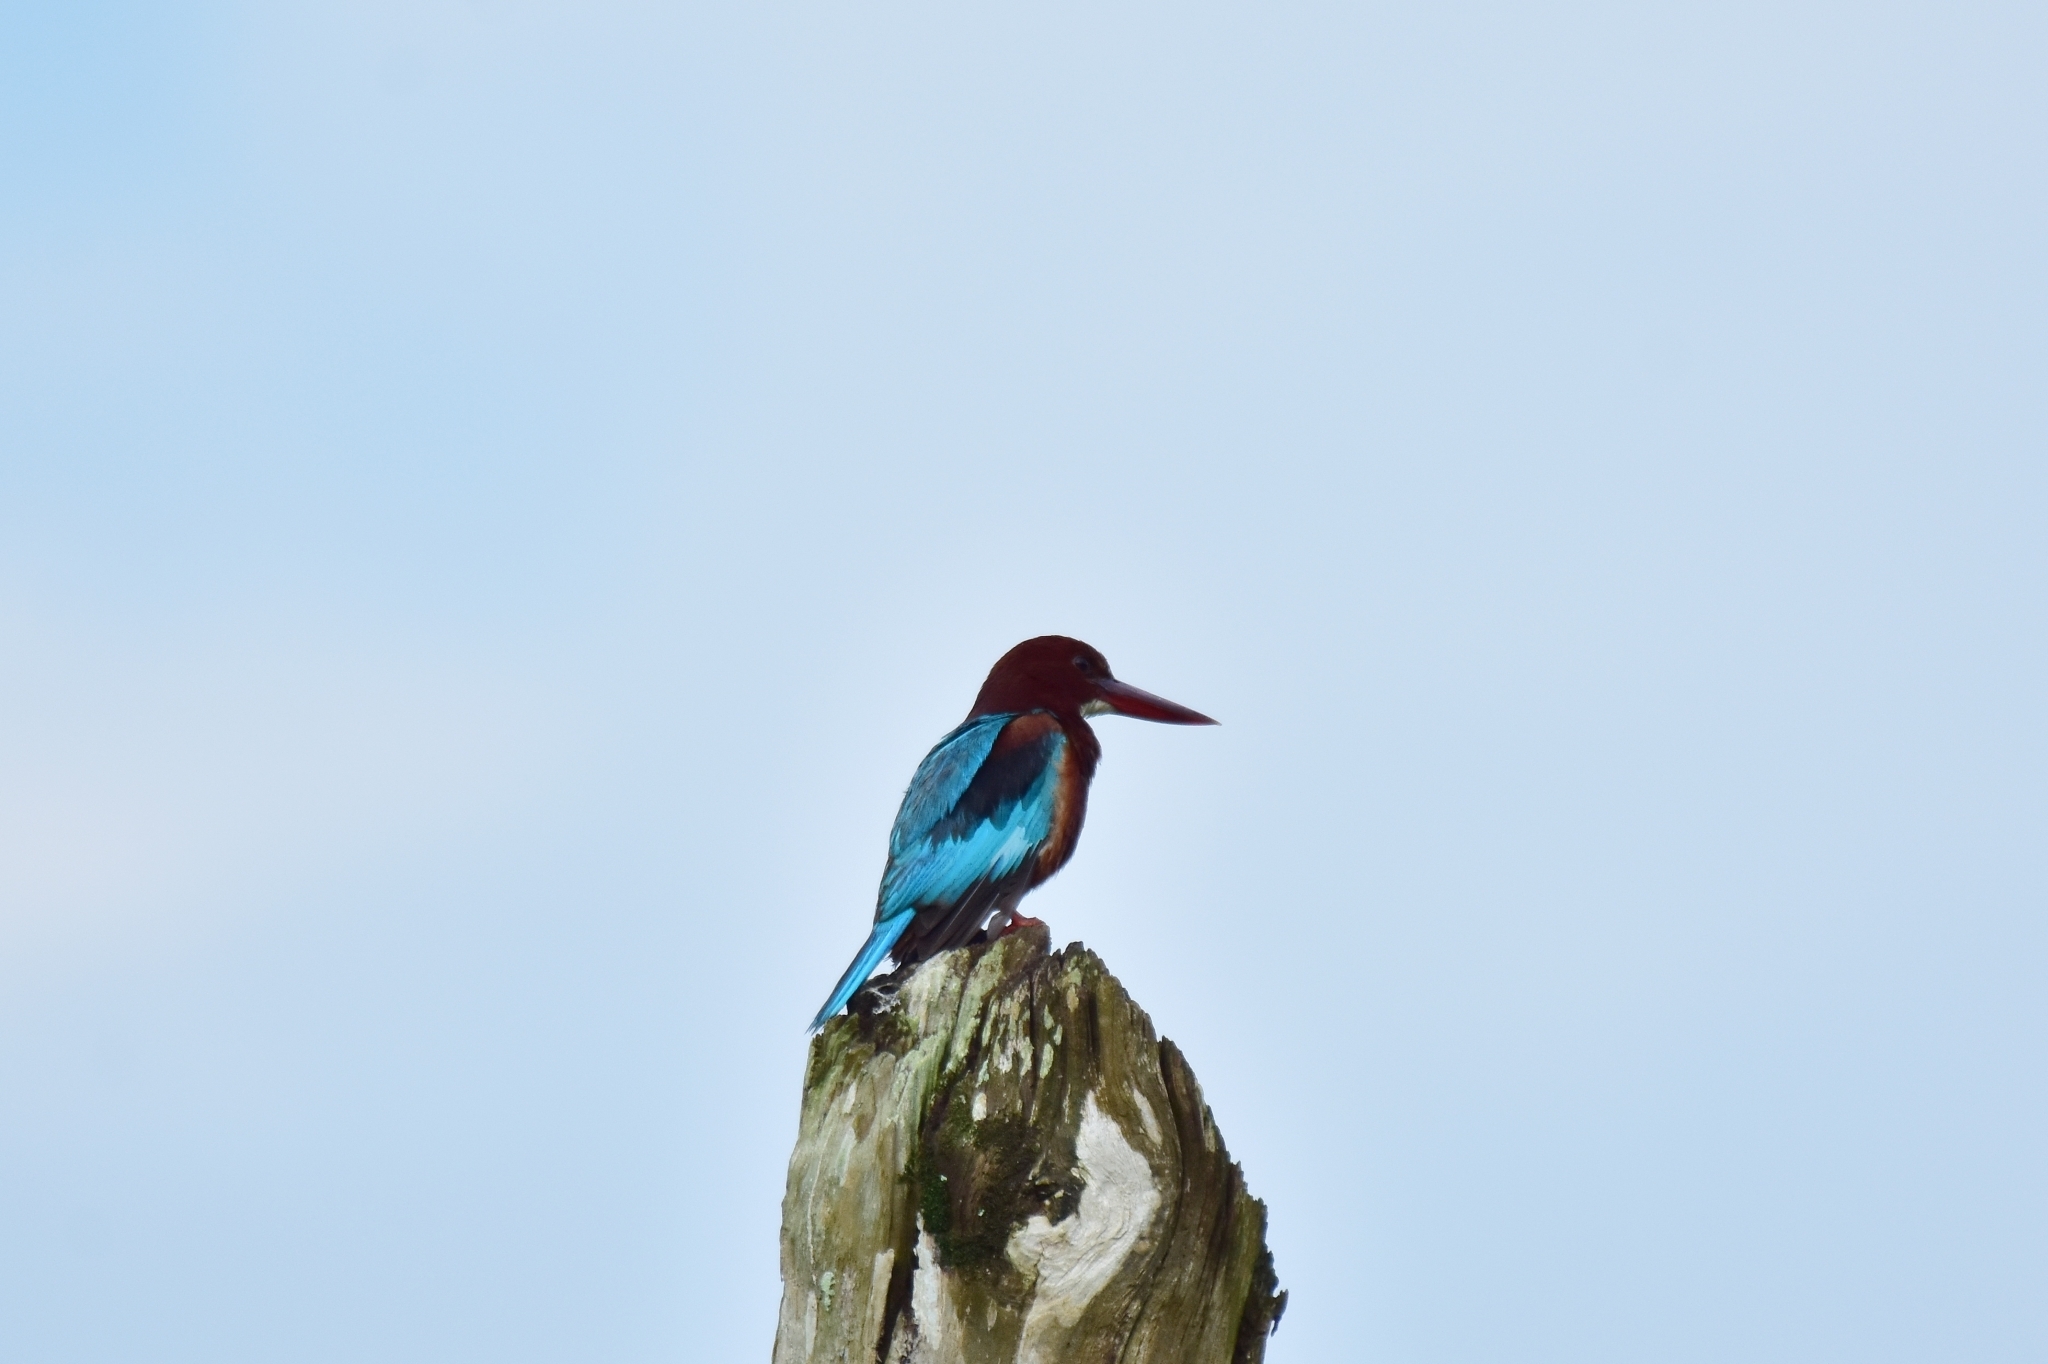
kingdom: Animalia
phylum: Chordata
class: Aves
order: Coraciiformes
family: Alcedinidae
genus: Halcyon
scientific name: Halcyon smyrnensis
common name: White-throated kingfisher
